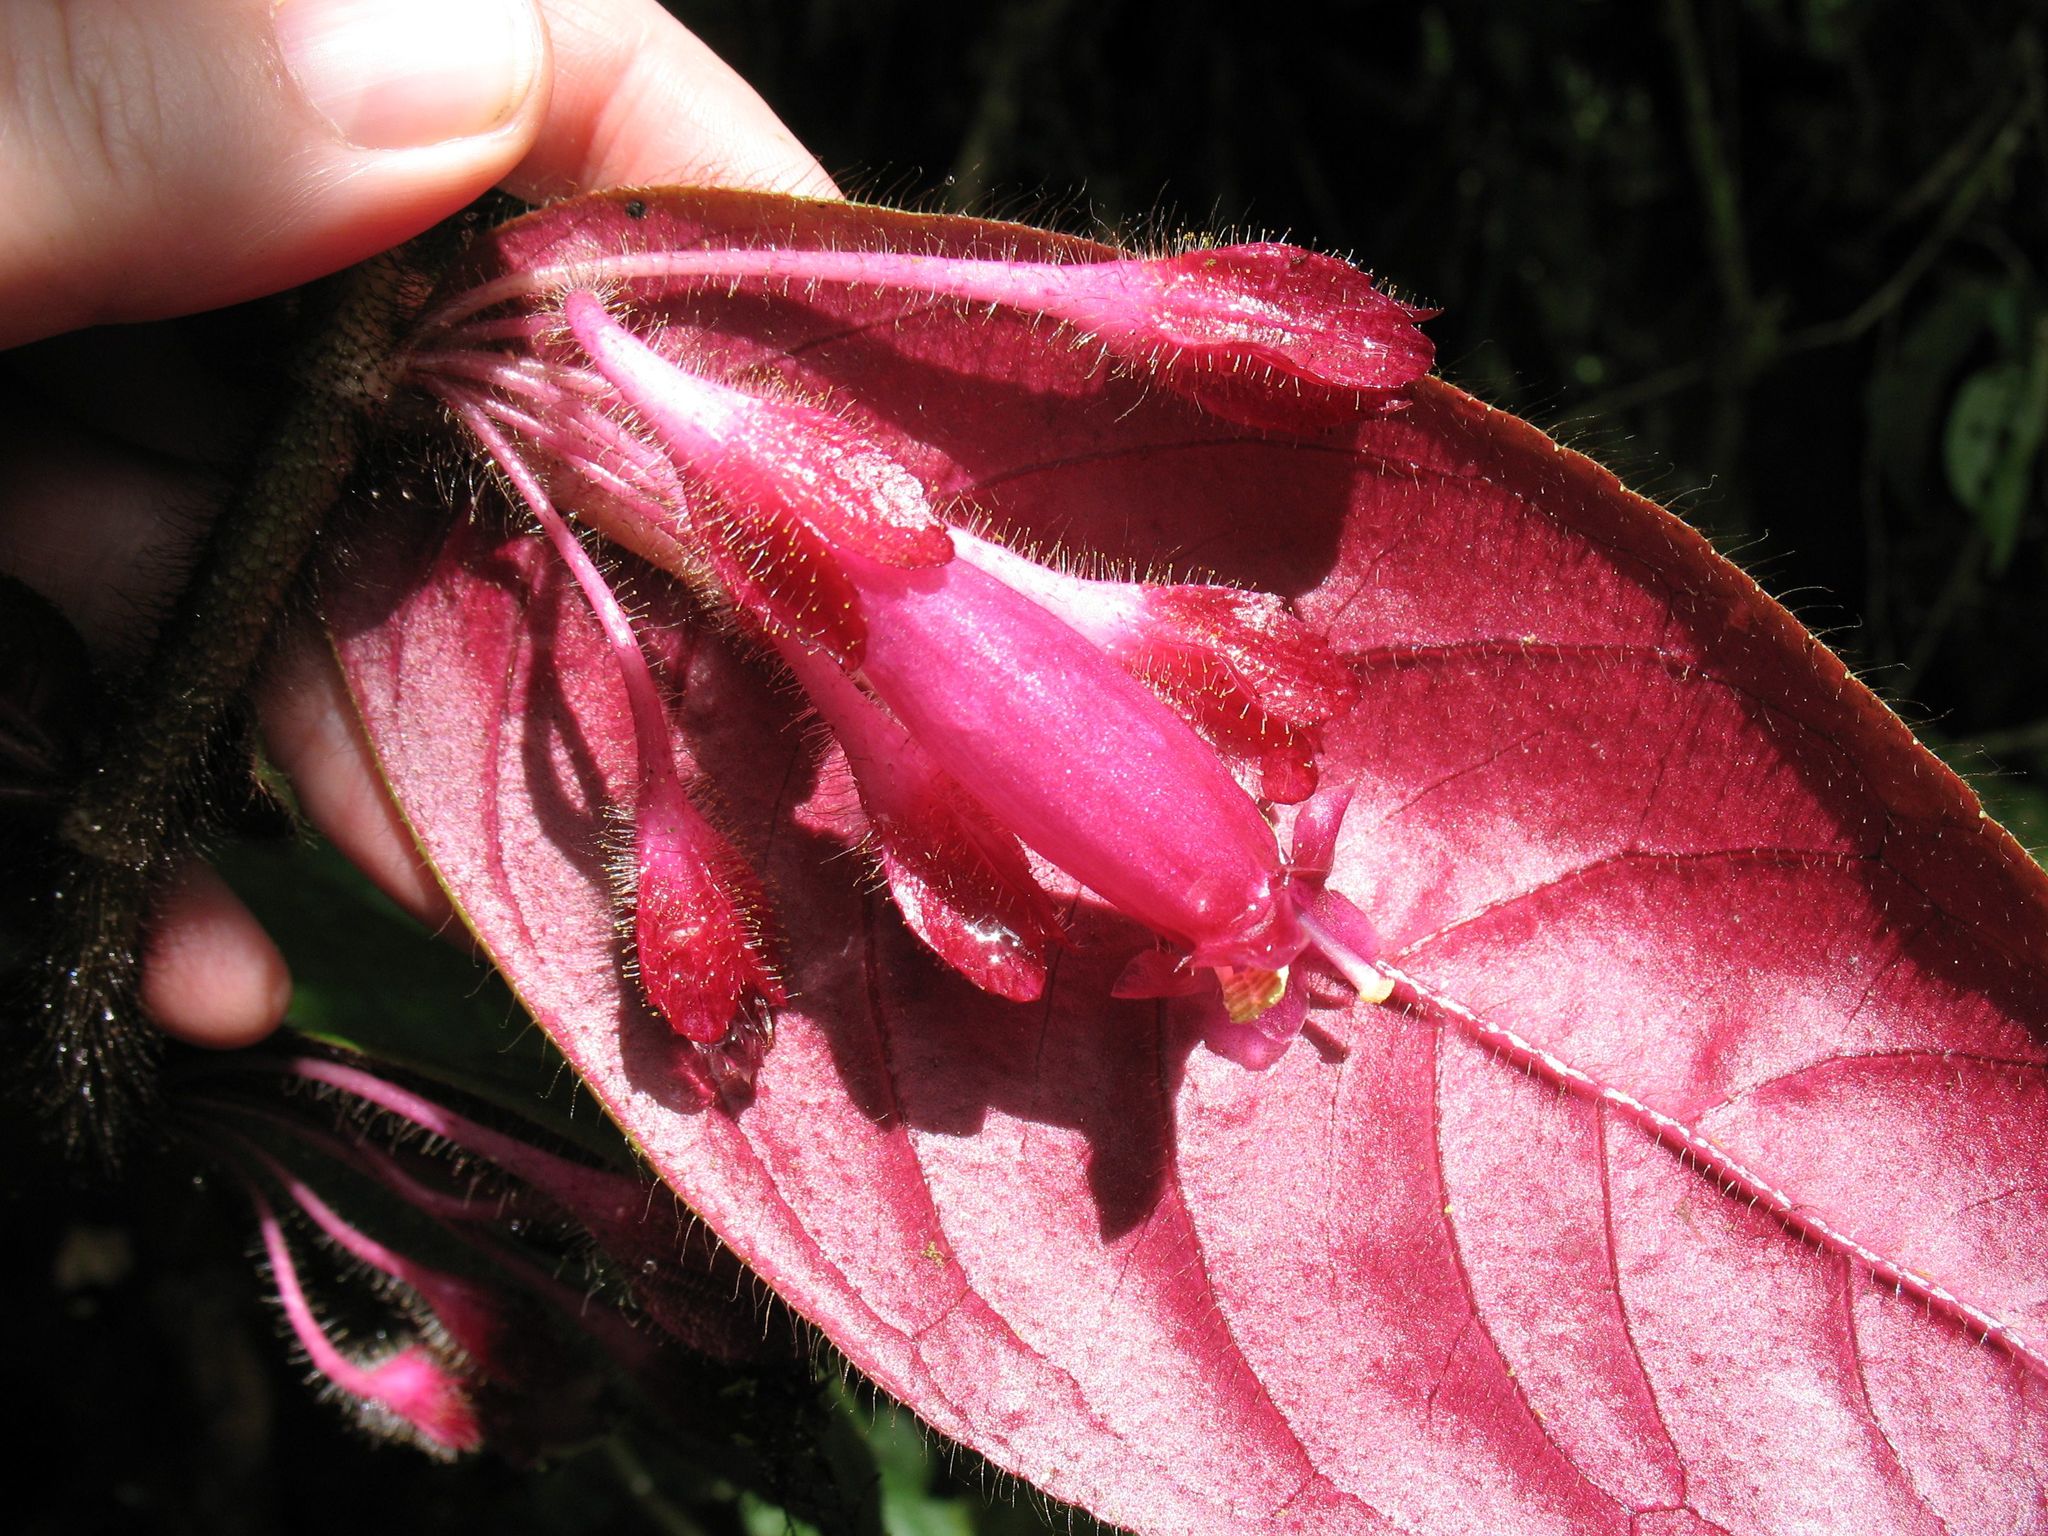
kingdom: Plantae
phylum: Tracheophyta
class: Magnoliopsida
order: Lamiales
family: Gesneriaceae
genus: Columnea
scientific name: Columnea ciliata
